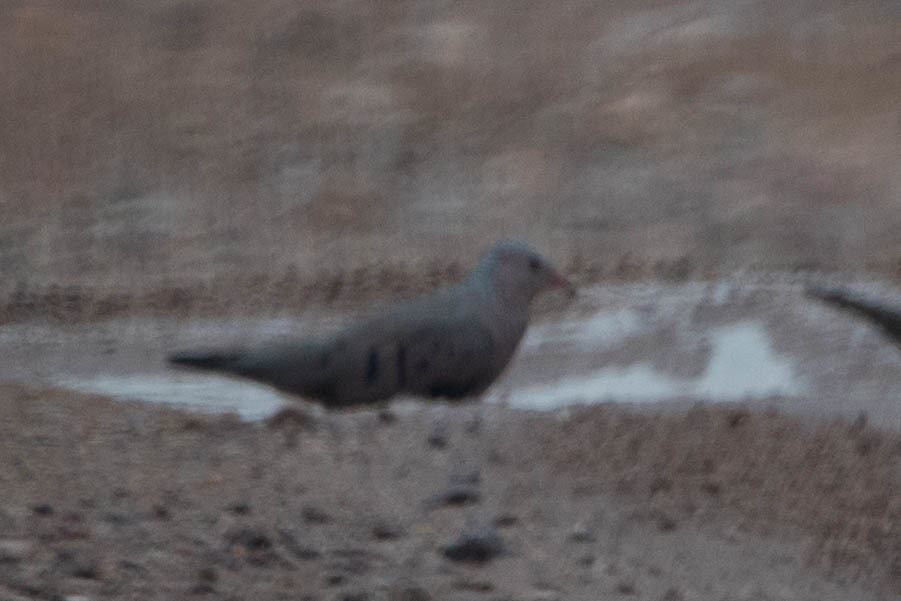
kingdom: Animalia
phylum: Chordata
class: Aves
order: Columbiformes
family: Columbidae
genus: Columbina
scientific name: Columbina passerina
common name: Common ground-dove
